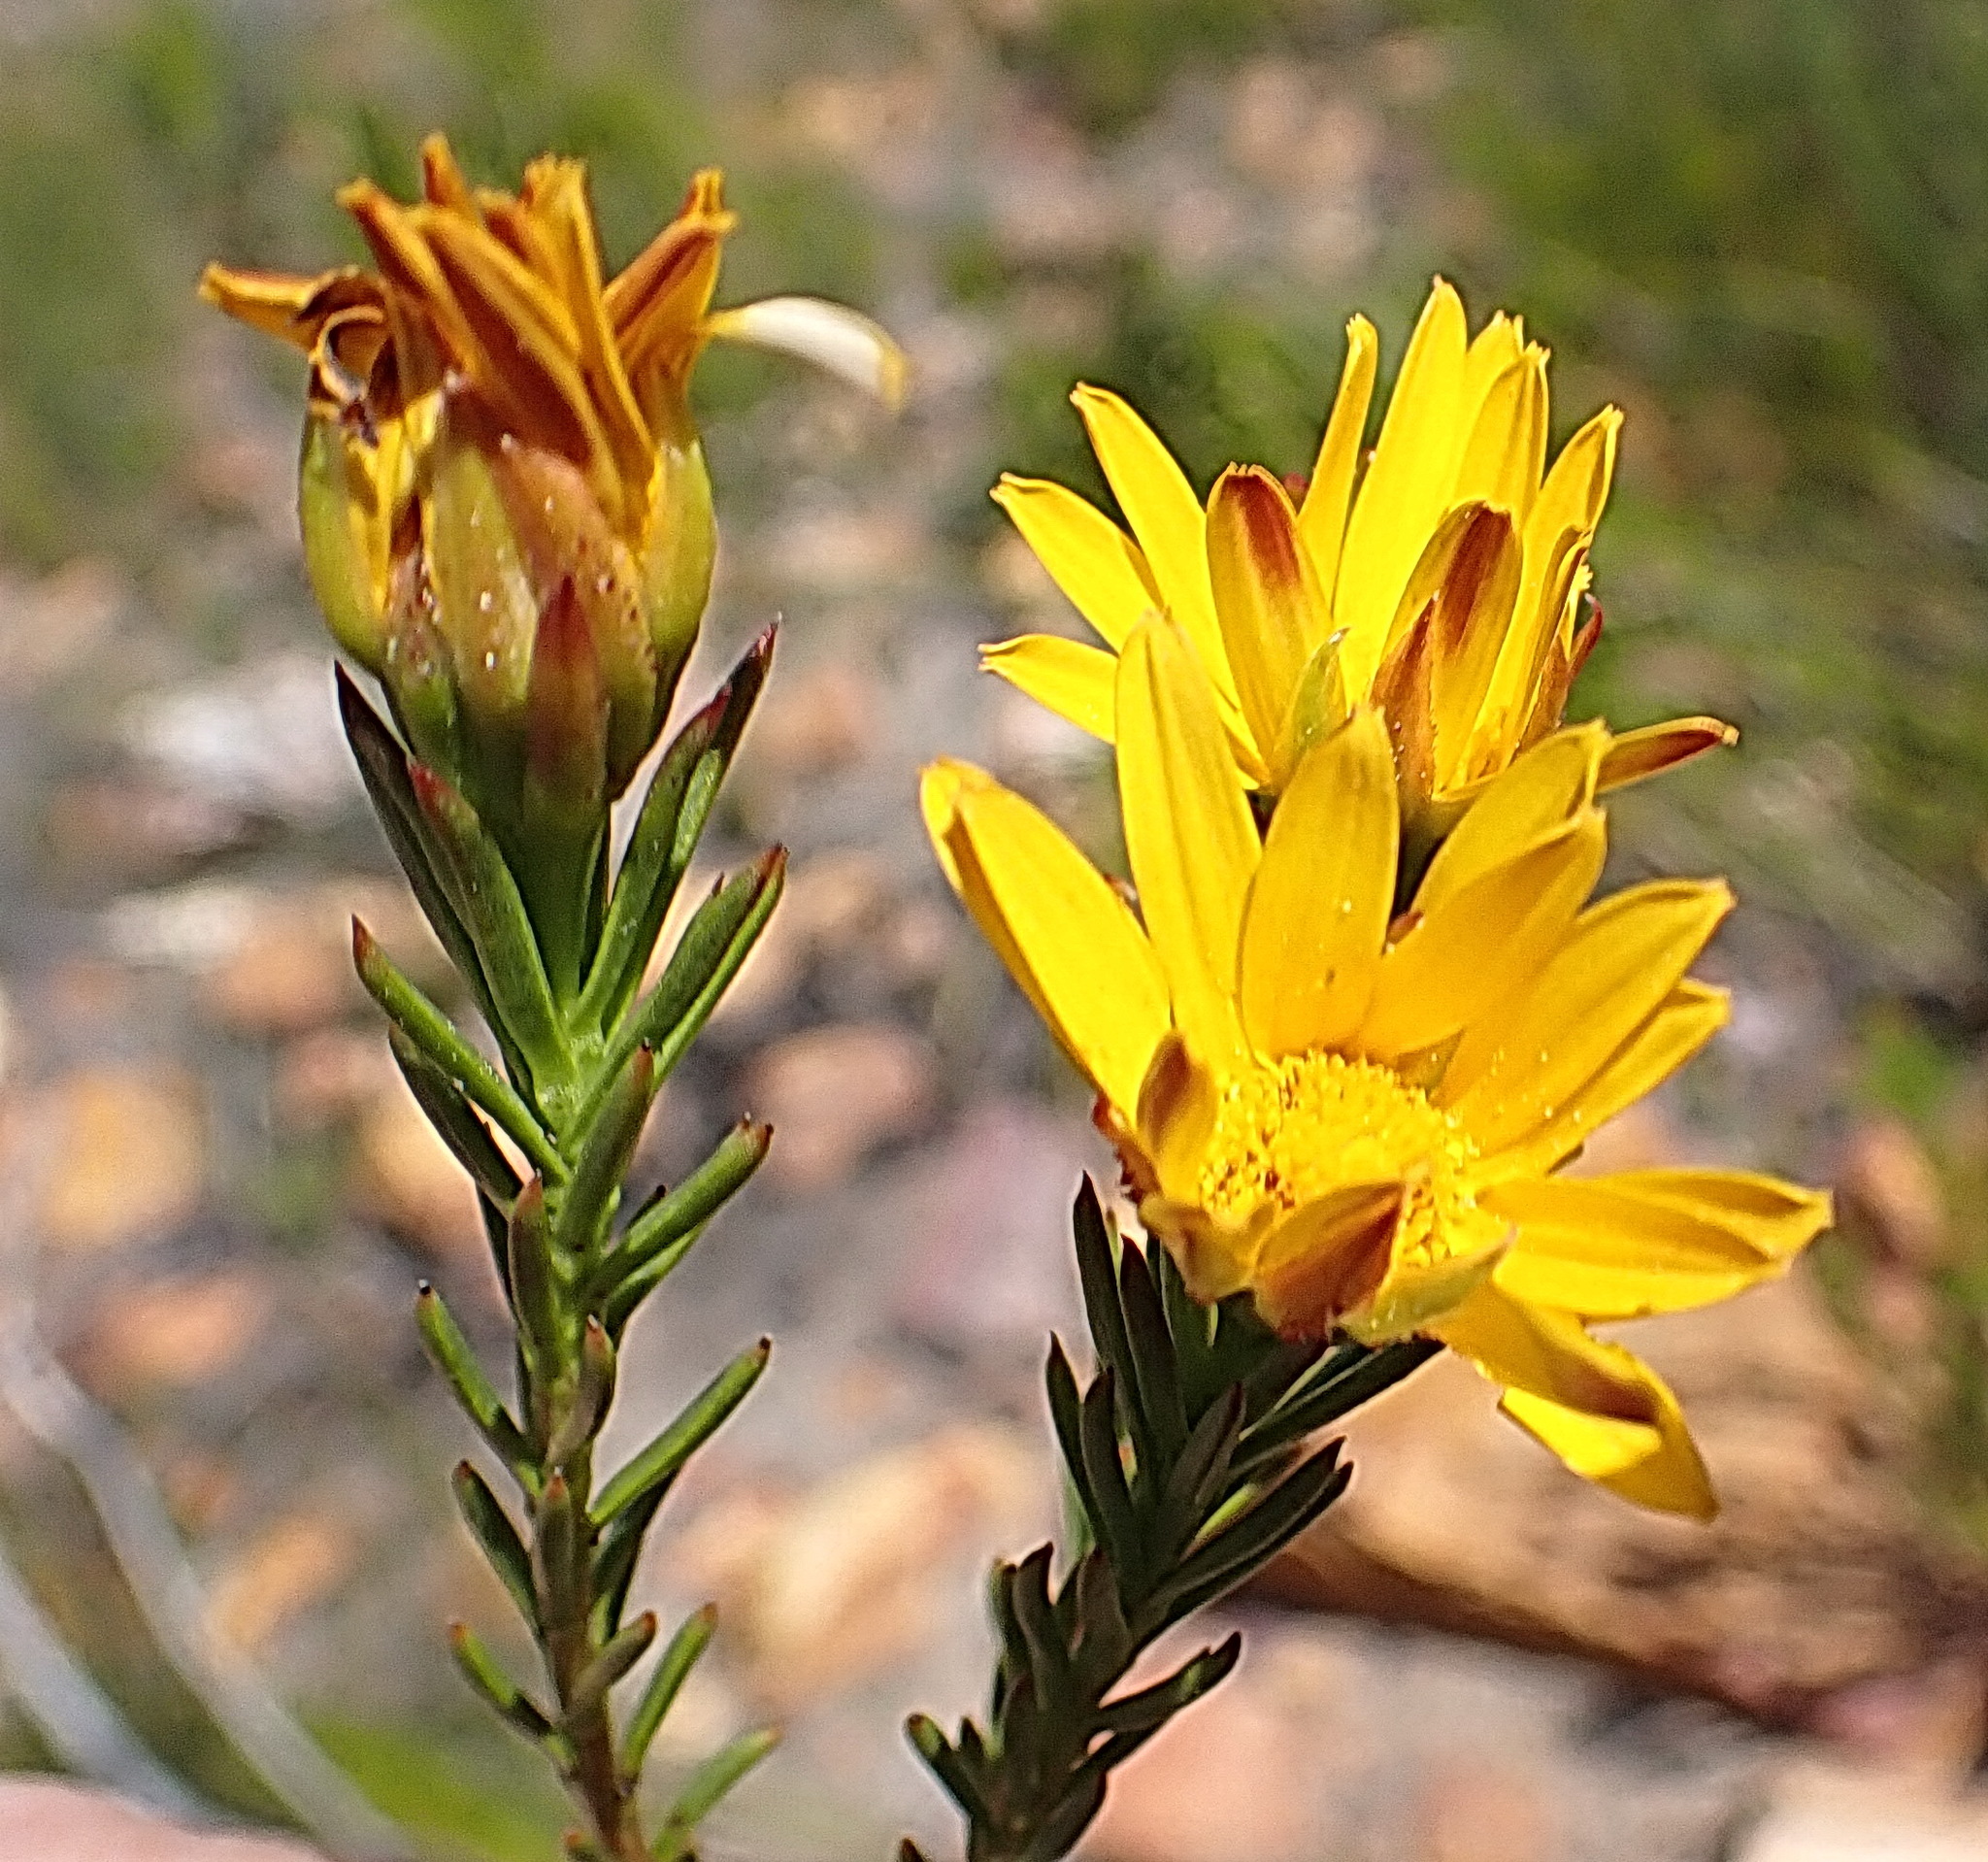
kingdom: Plantae
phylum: Tracheophyta
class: Magnoliopsida
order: Asterales
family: Asteraceae
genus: Oedera
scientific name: Oedera capensis
